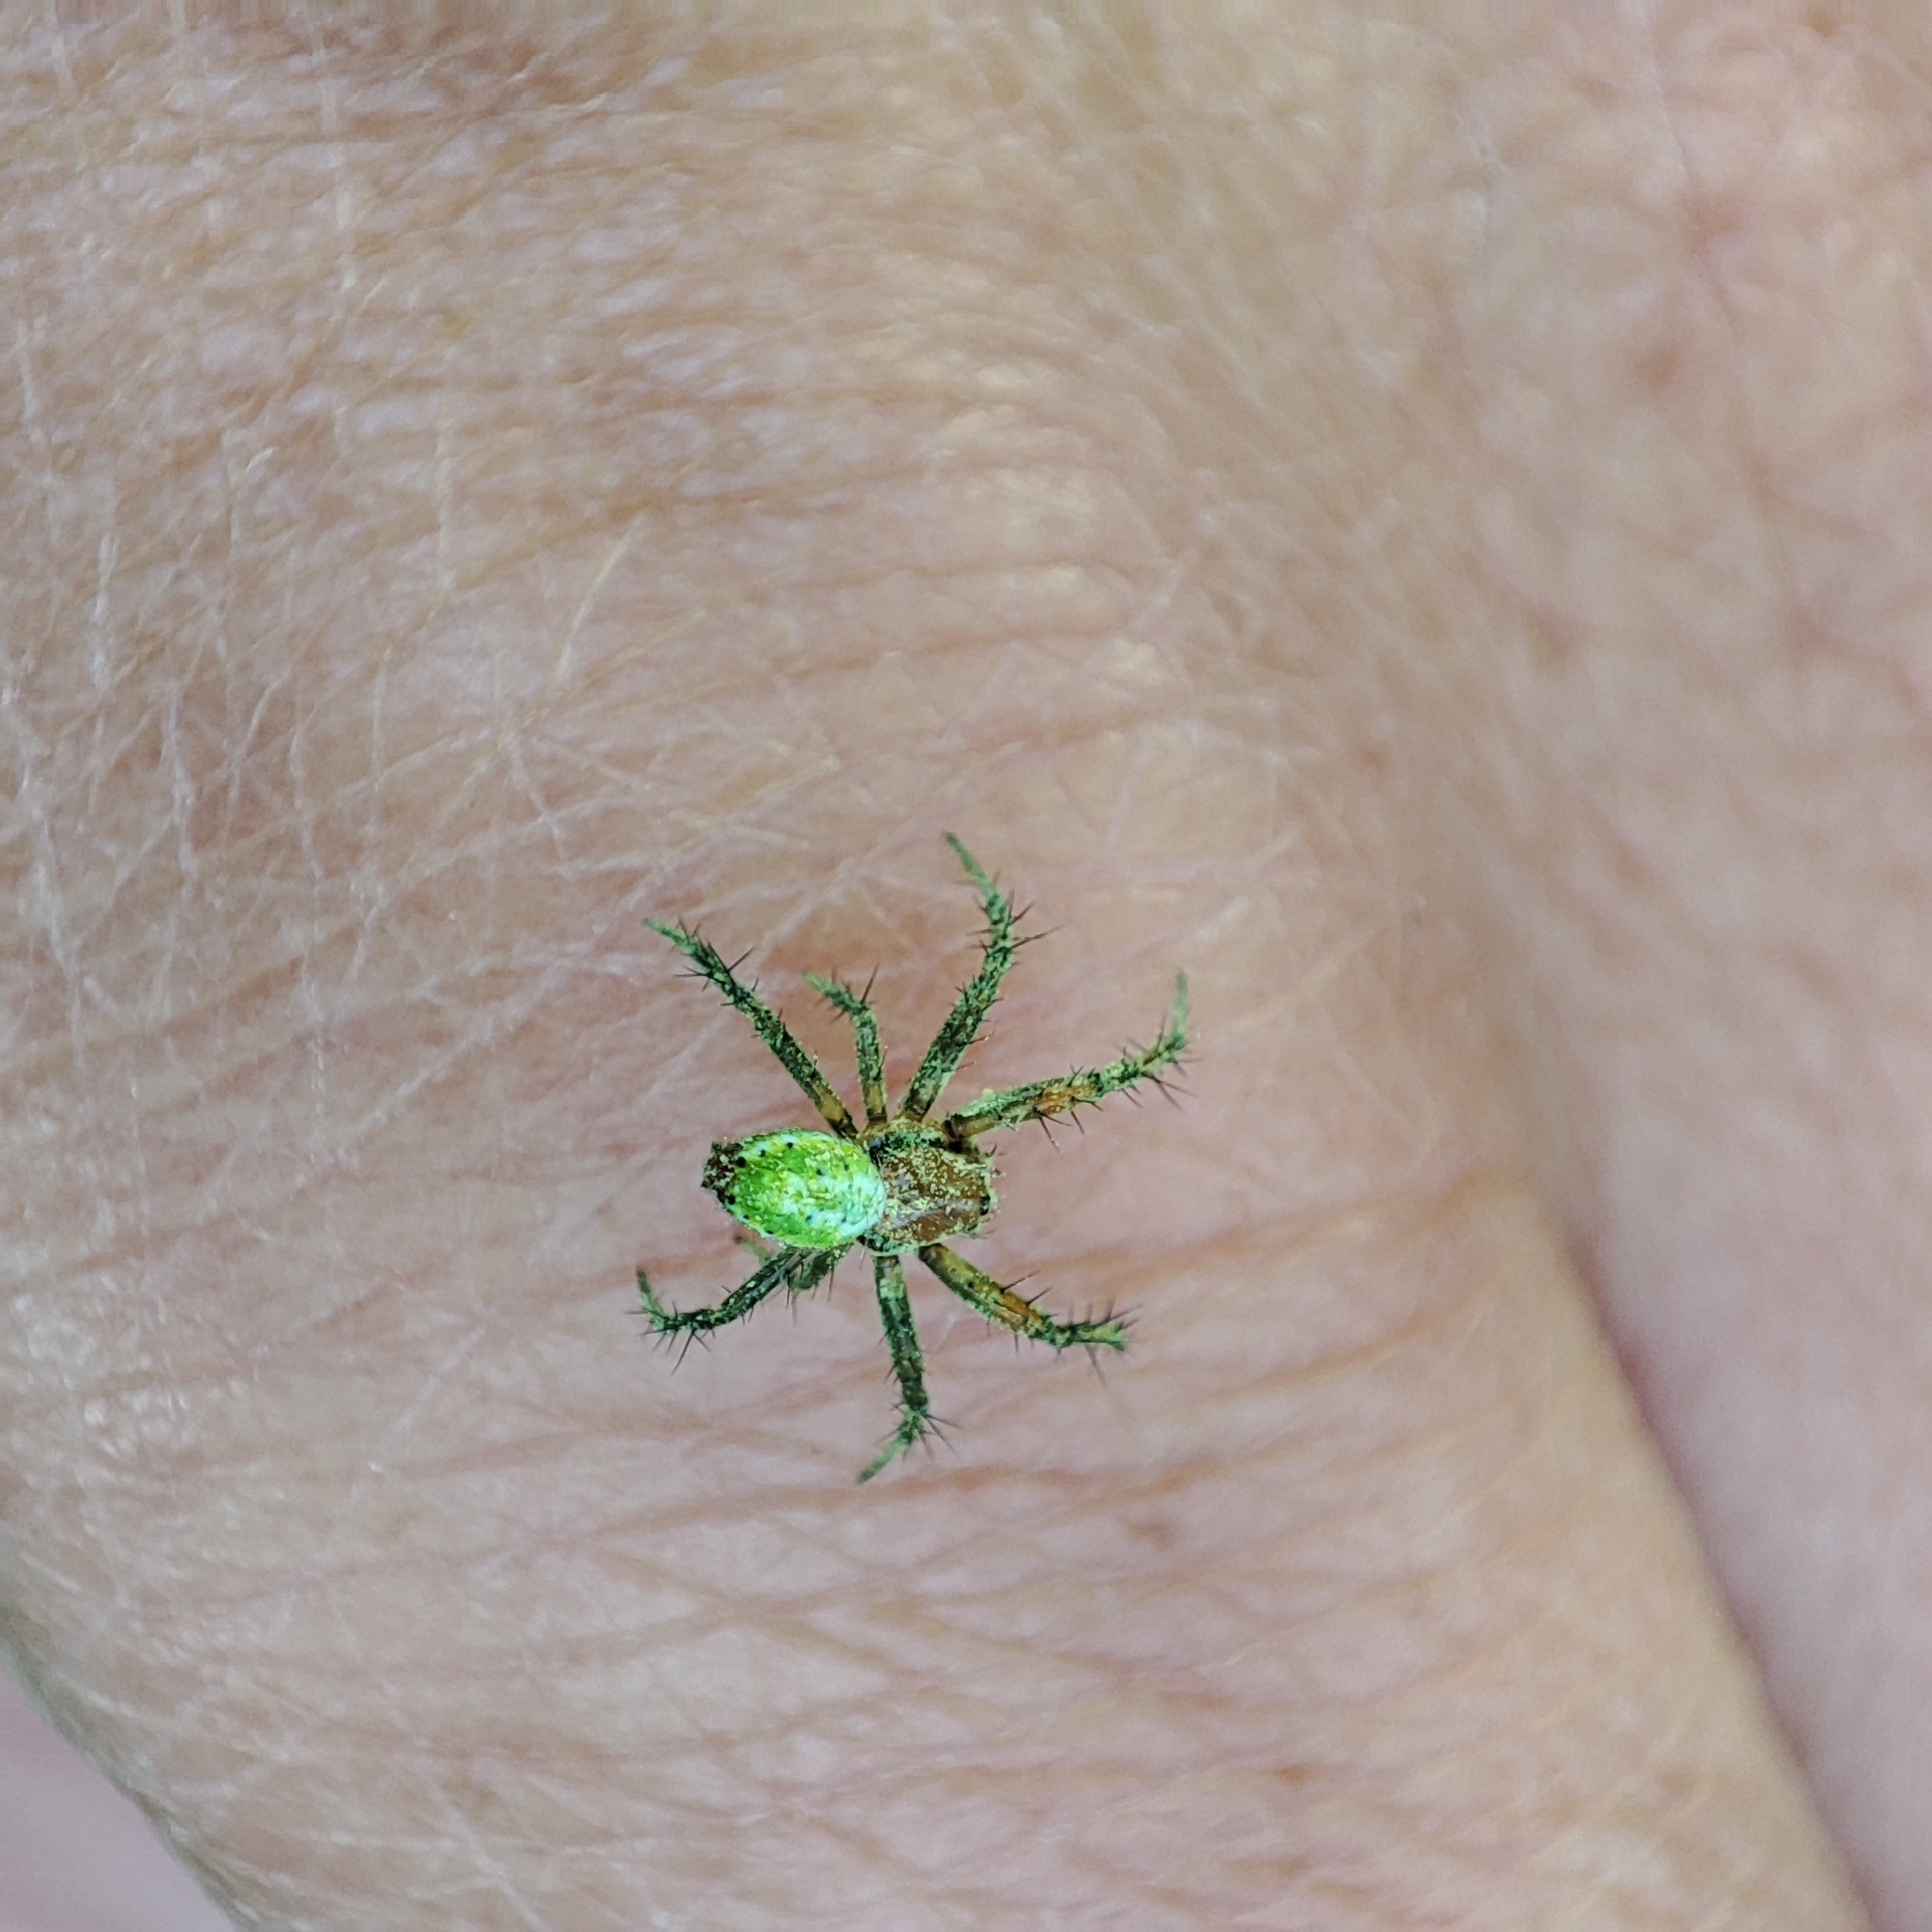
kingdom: Animalia
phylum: Arthropoda
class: Arachnida
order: Araneae
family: Araneidae
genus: Araniella
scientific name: Araniella
